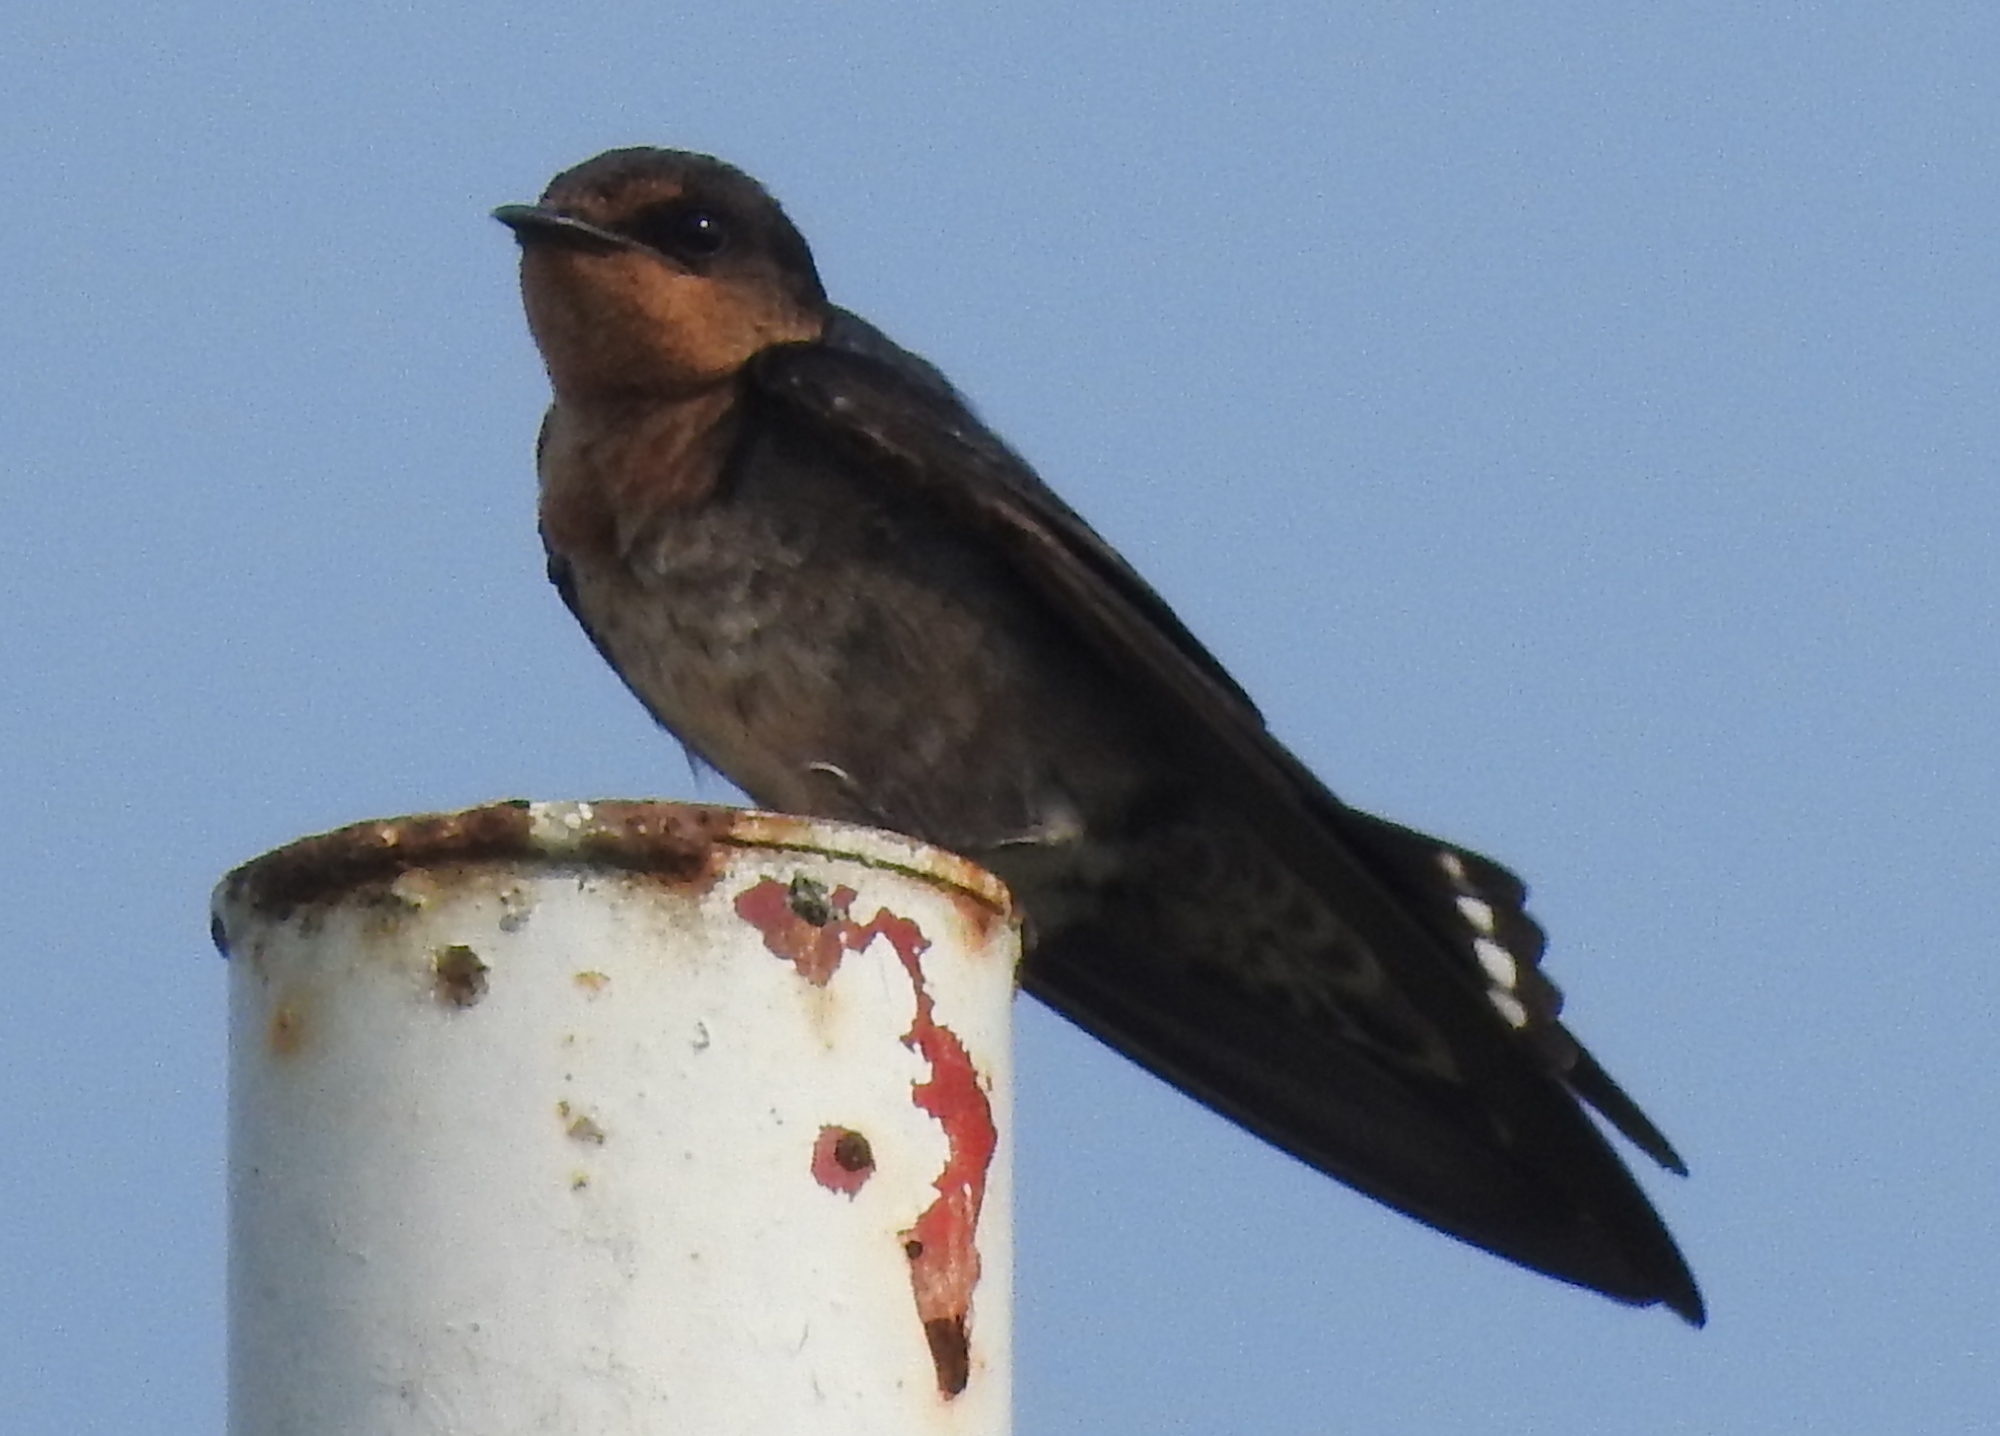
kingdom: Animalia
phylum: Chordata
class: Aves
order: Passeriformes
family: Hirundinidae
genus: Hirundo
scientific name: Hirundo tahitica
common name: Pacific swallow
